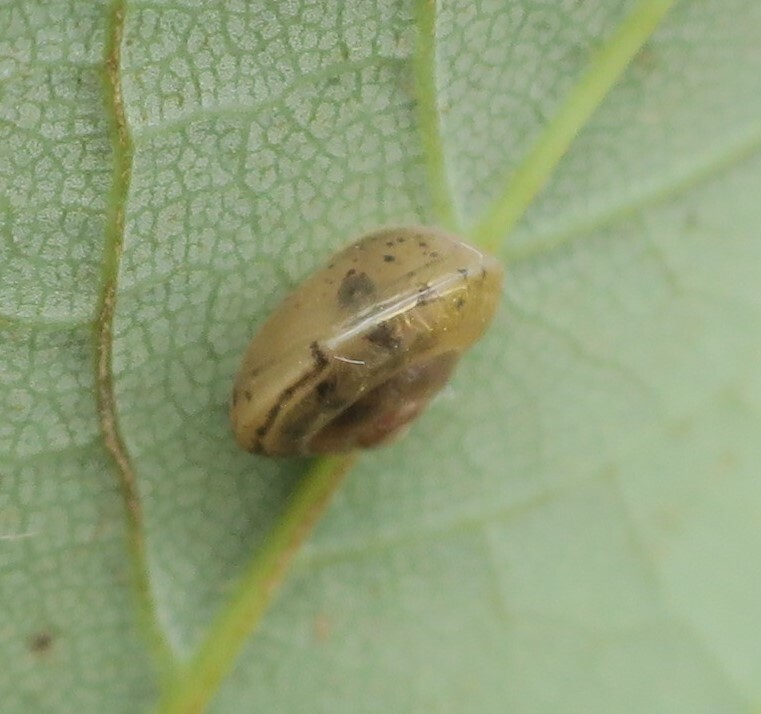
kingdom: Animalia
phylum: Mollusca
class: Gastropoda
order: Stylommatophora
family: Hygromiidae
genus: Hygromia
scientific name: Hygromia cinctella
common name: Girdled snail
